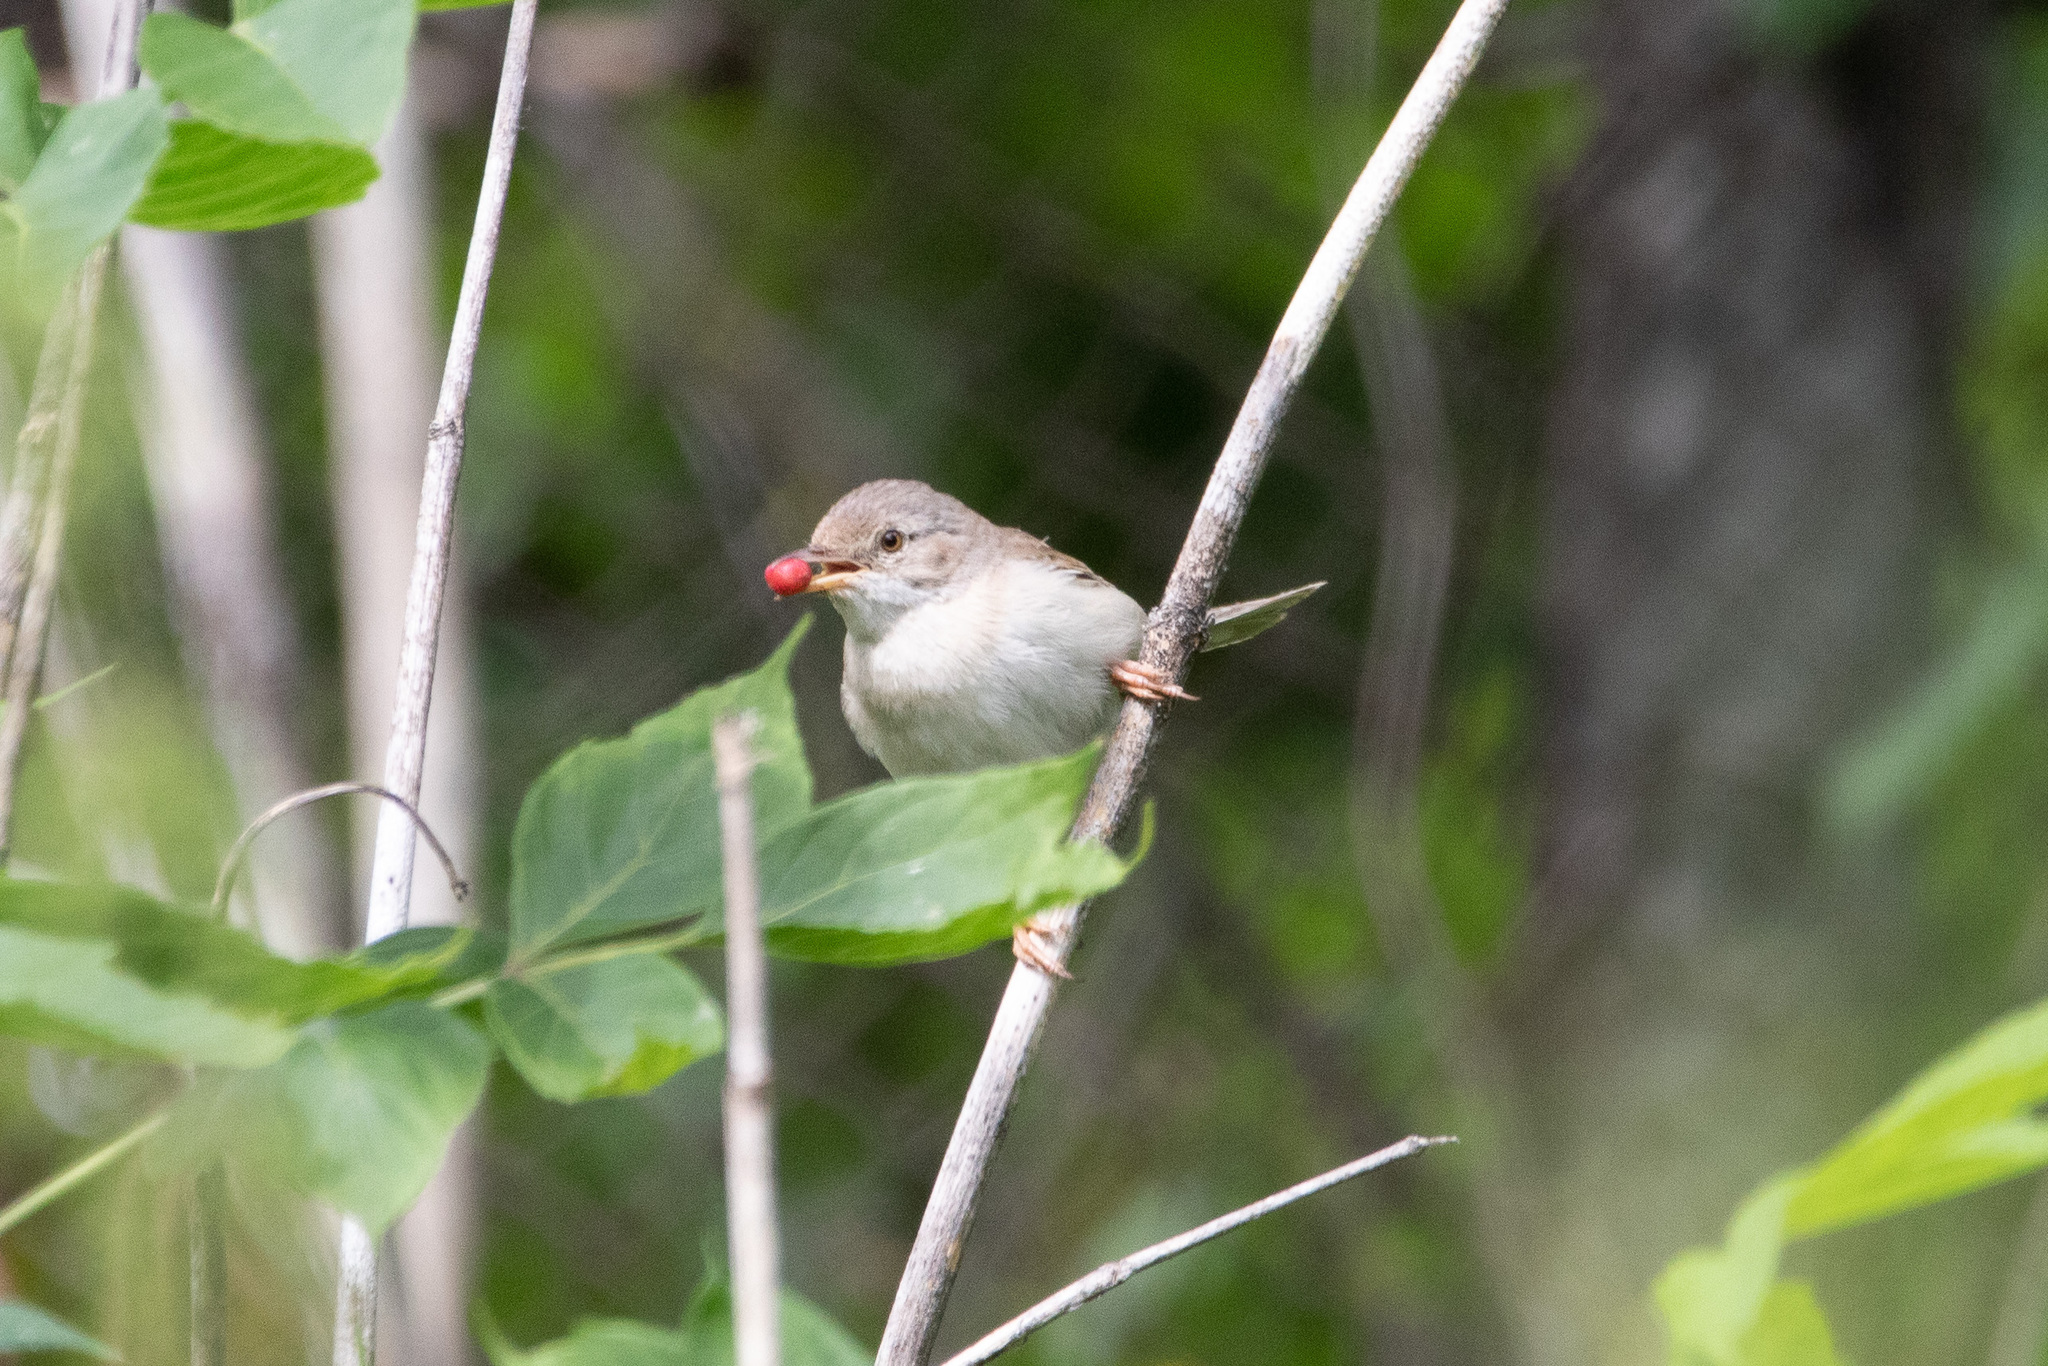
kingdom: Animalia
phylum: Chordata
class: Aves
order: Passeriformes
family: Sylviidae
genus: Sylvia
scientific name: Sylvia communis
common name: Common whitethroat
